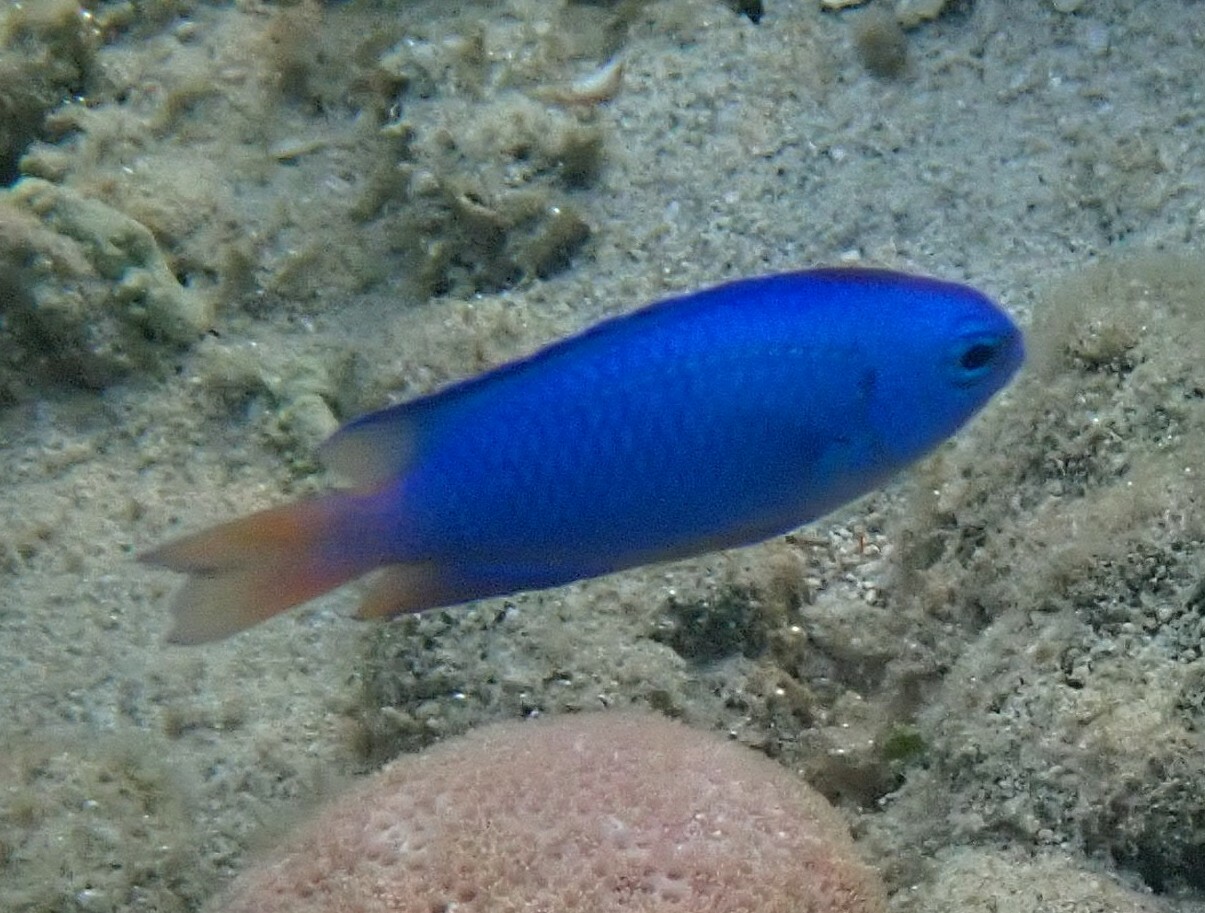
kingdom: Animalia
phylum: Chordata
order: Perciformes
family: Pomacentridae
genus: Pomacentrus
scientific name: Pomacentrus coelestis
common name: Neon damsel
